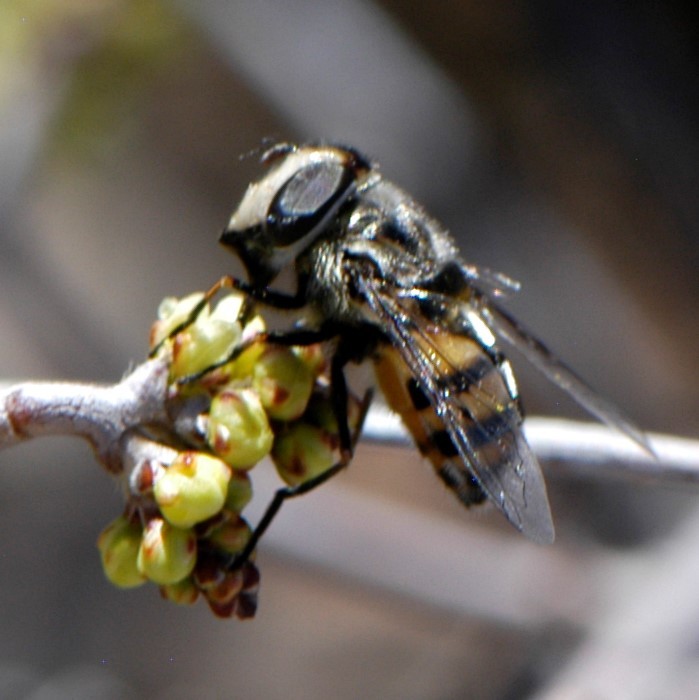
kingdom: Animalia
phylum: Arthropoda
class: Insecta
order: Diptera
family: Syrphidae
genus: Copestylum
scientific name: Copestylum avidum
